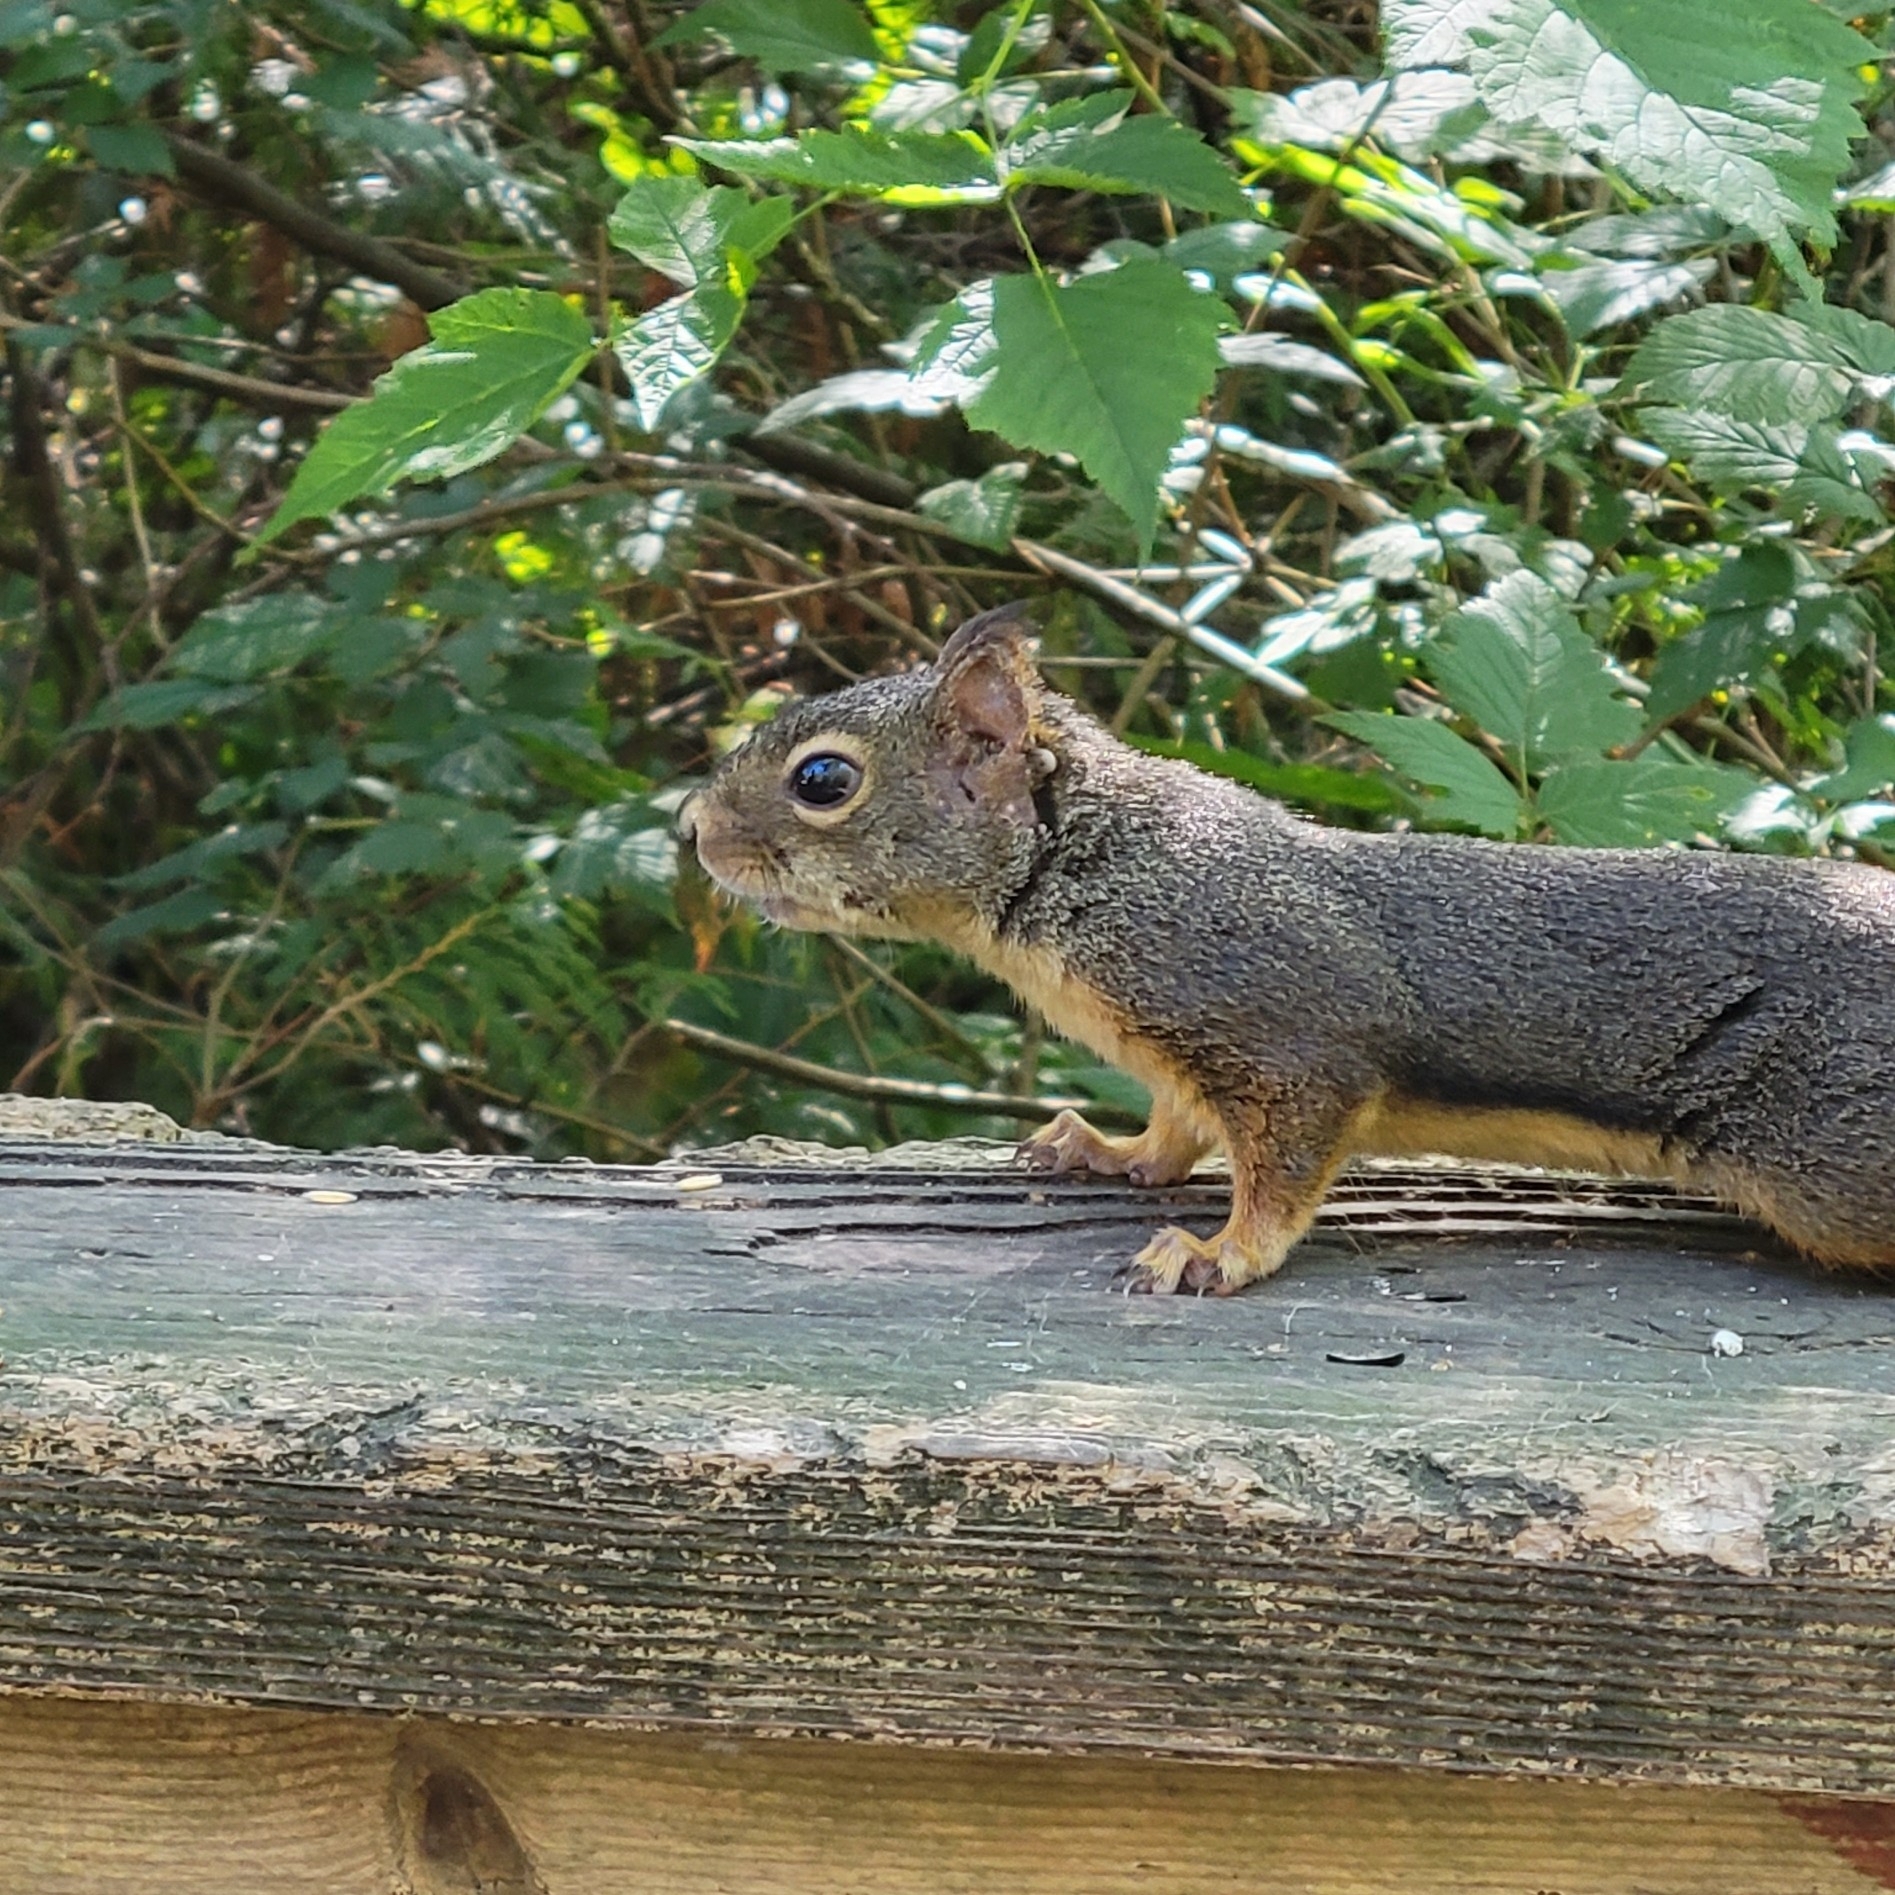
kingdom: Animalia
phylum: Chordata
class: Mammalia
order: Rodentia
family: Sciuridae
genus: Tamiasciurus
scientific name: Tamiasciurus douglasii
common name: Douglas's squirrel
